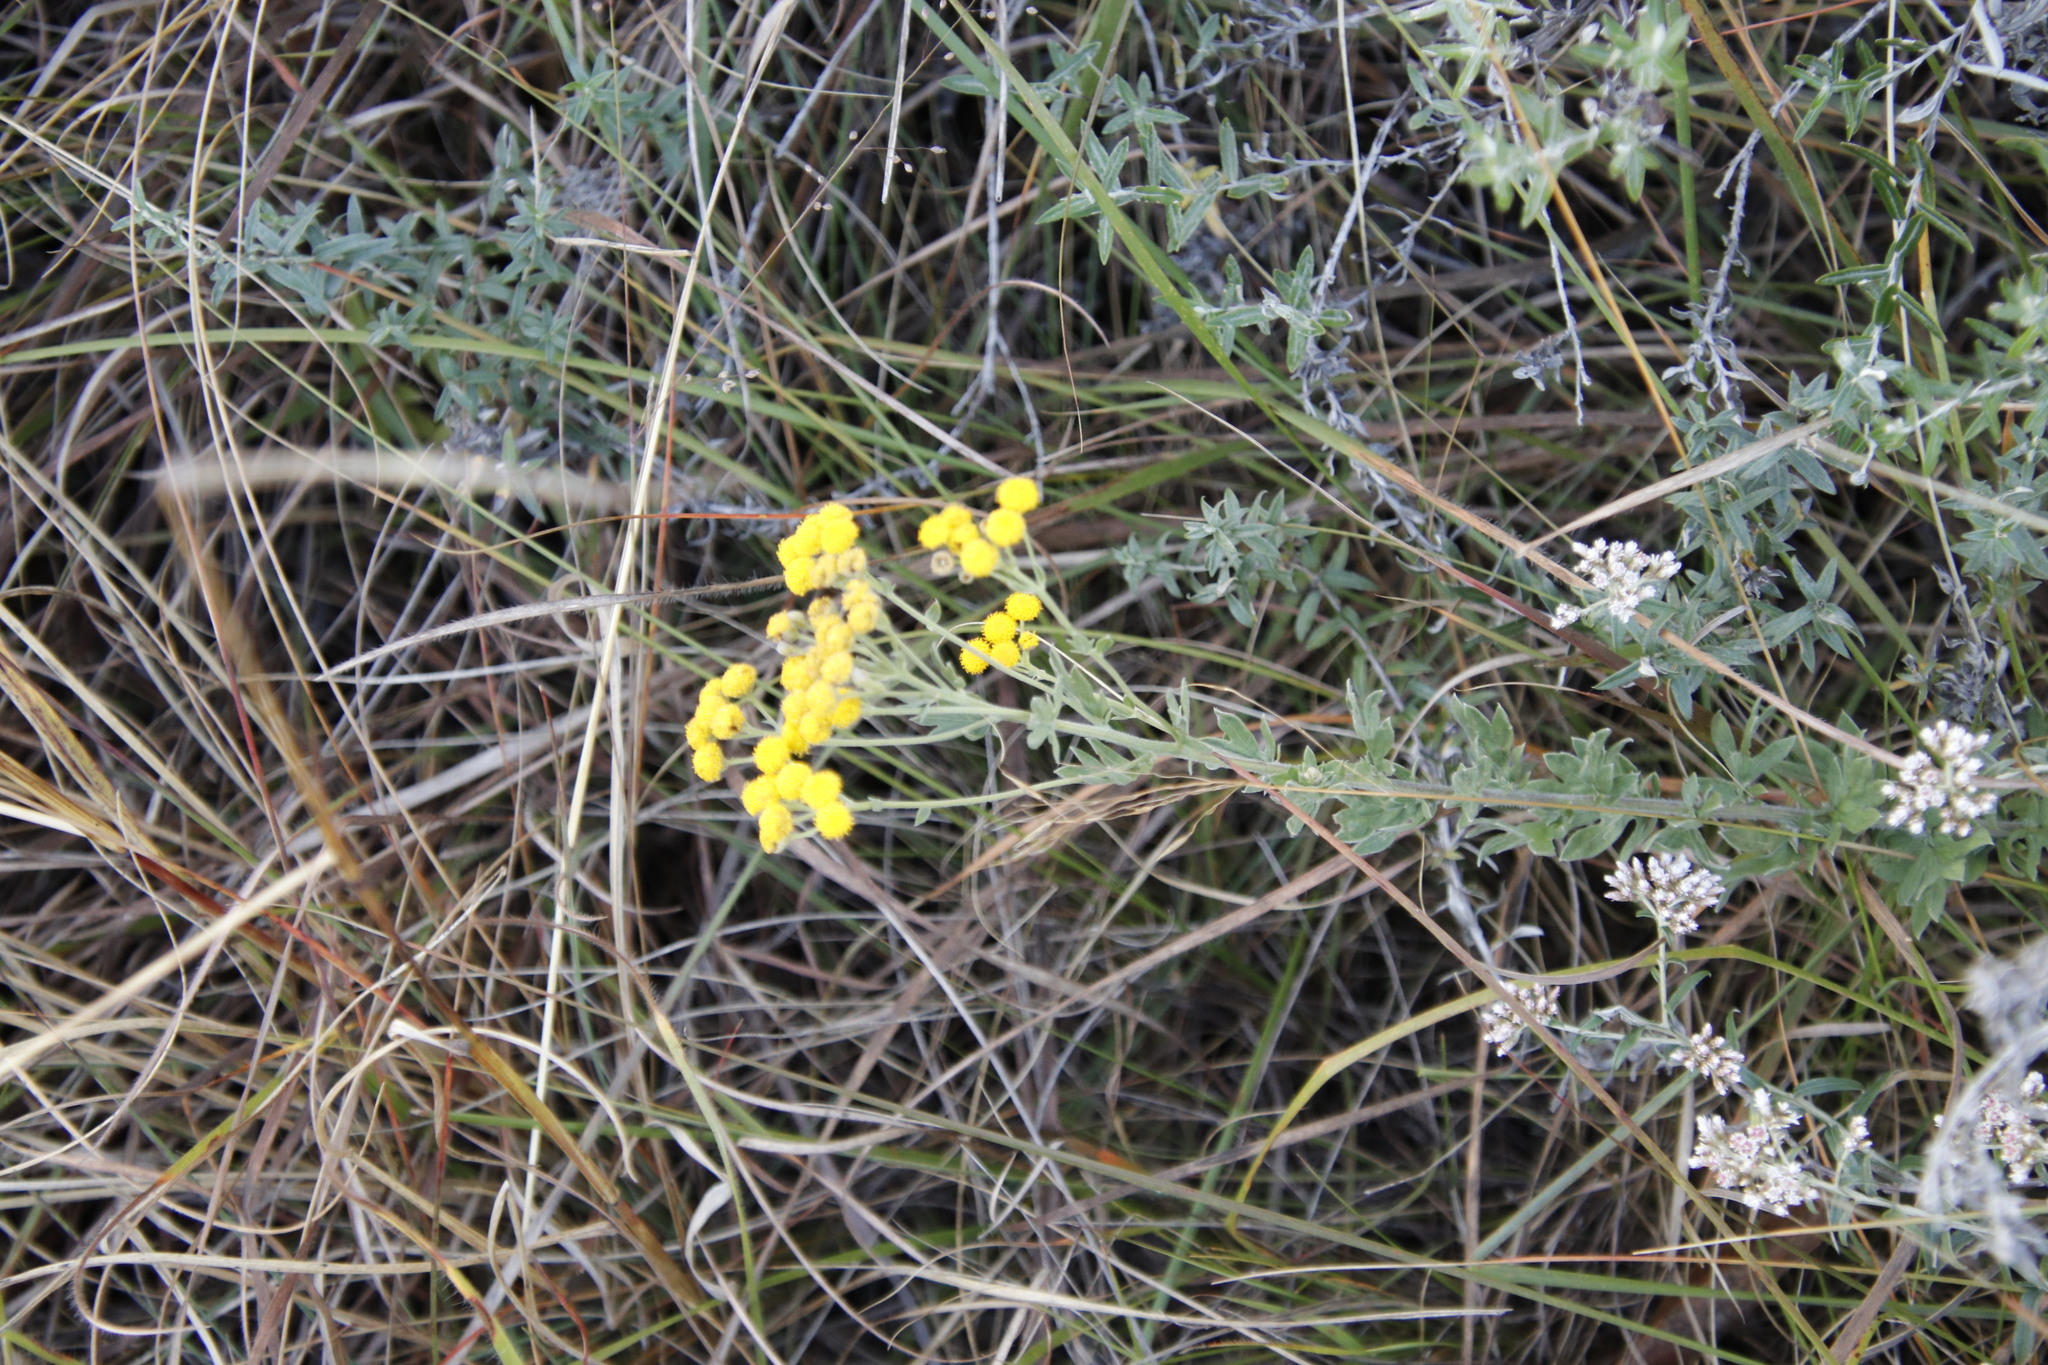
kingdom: Plantae
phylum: Tracheophyta
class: Magnoliopsida
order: Asterales
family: Asteraceae
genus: Schistostephium
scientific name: Schistostephium crataegifolium
